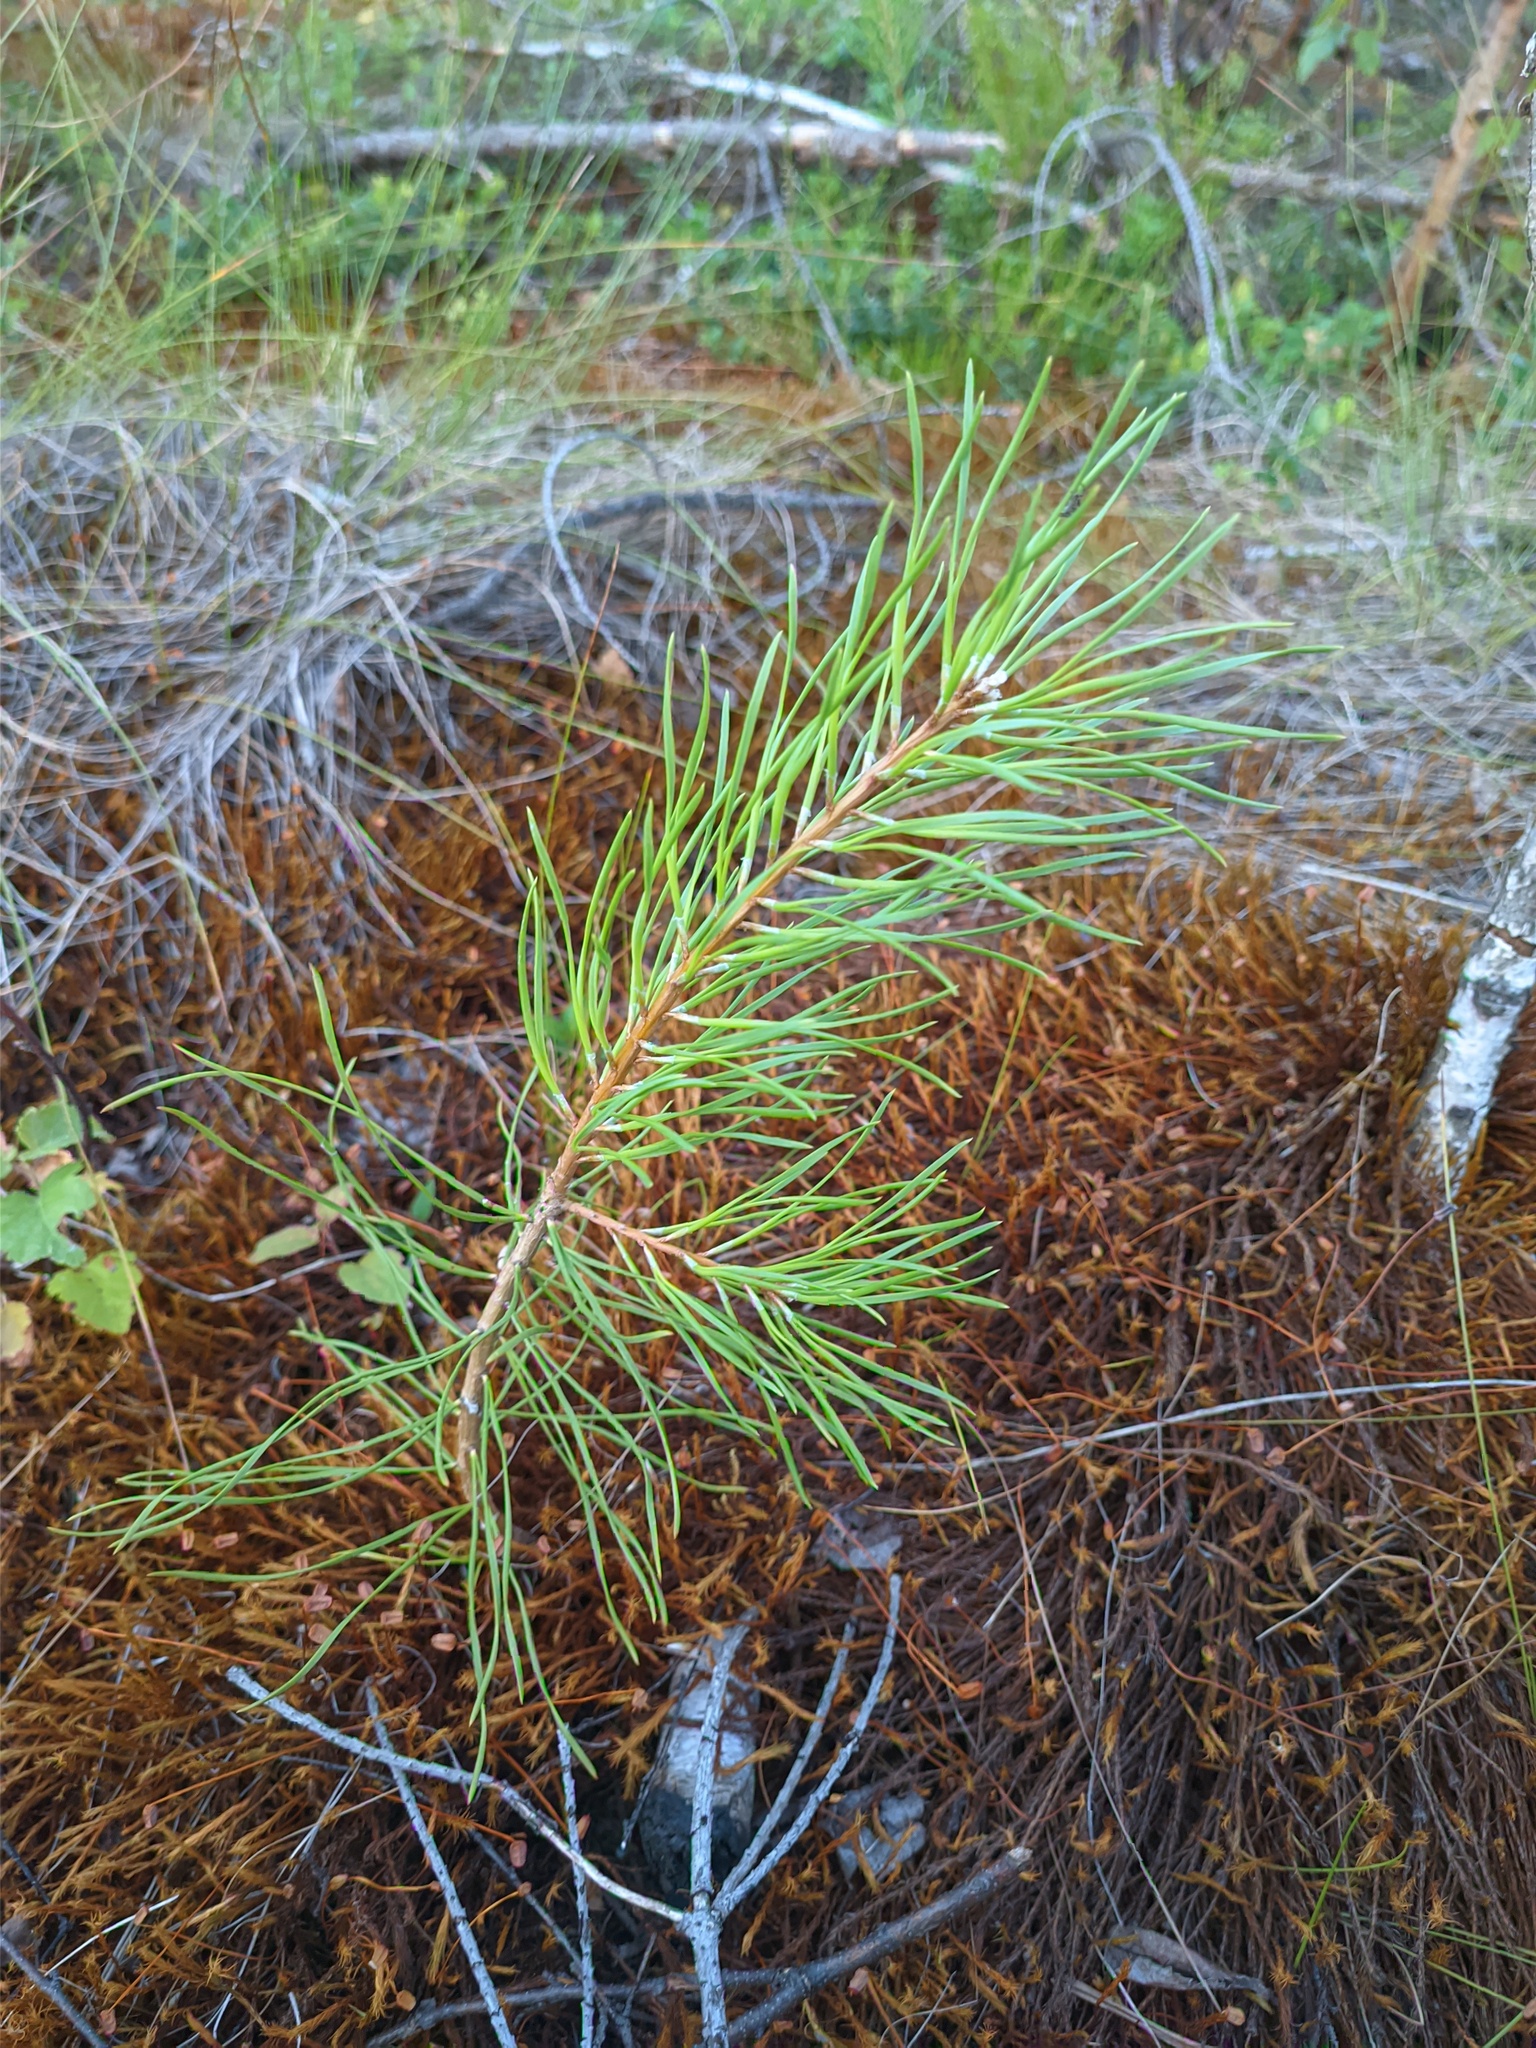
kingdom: Plantae
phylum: Tracheophyta
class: Pinopsida
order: Pinales
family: Pinaceae
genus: Pinus
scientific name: Pinus sylvestris
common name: Scots pine
